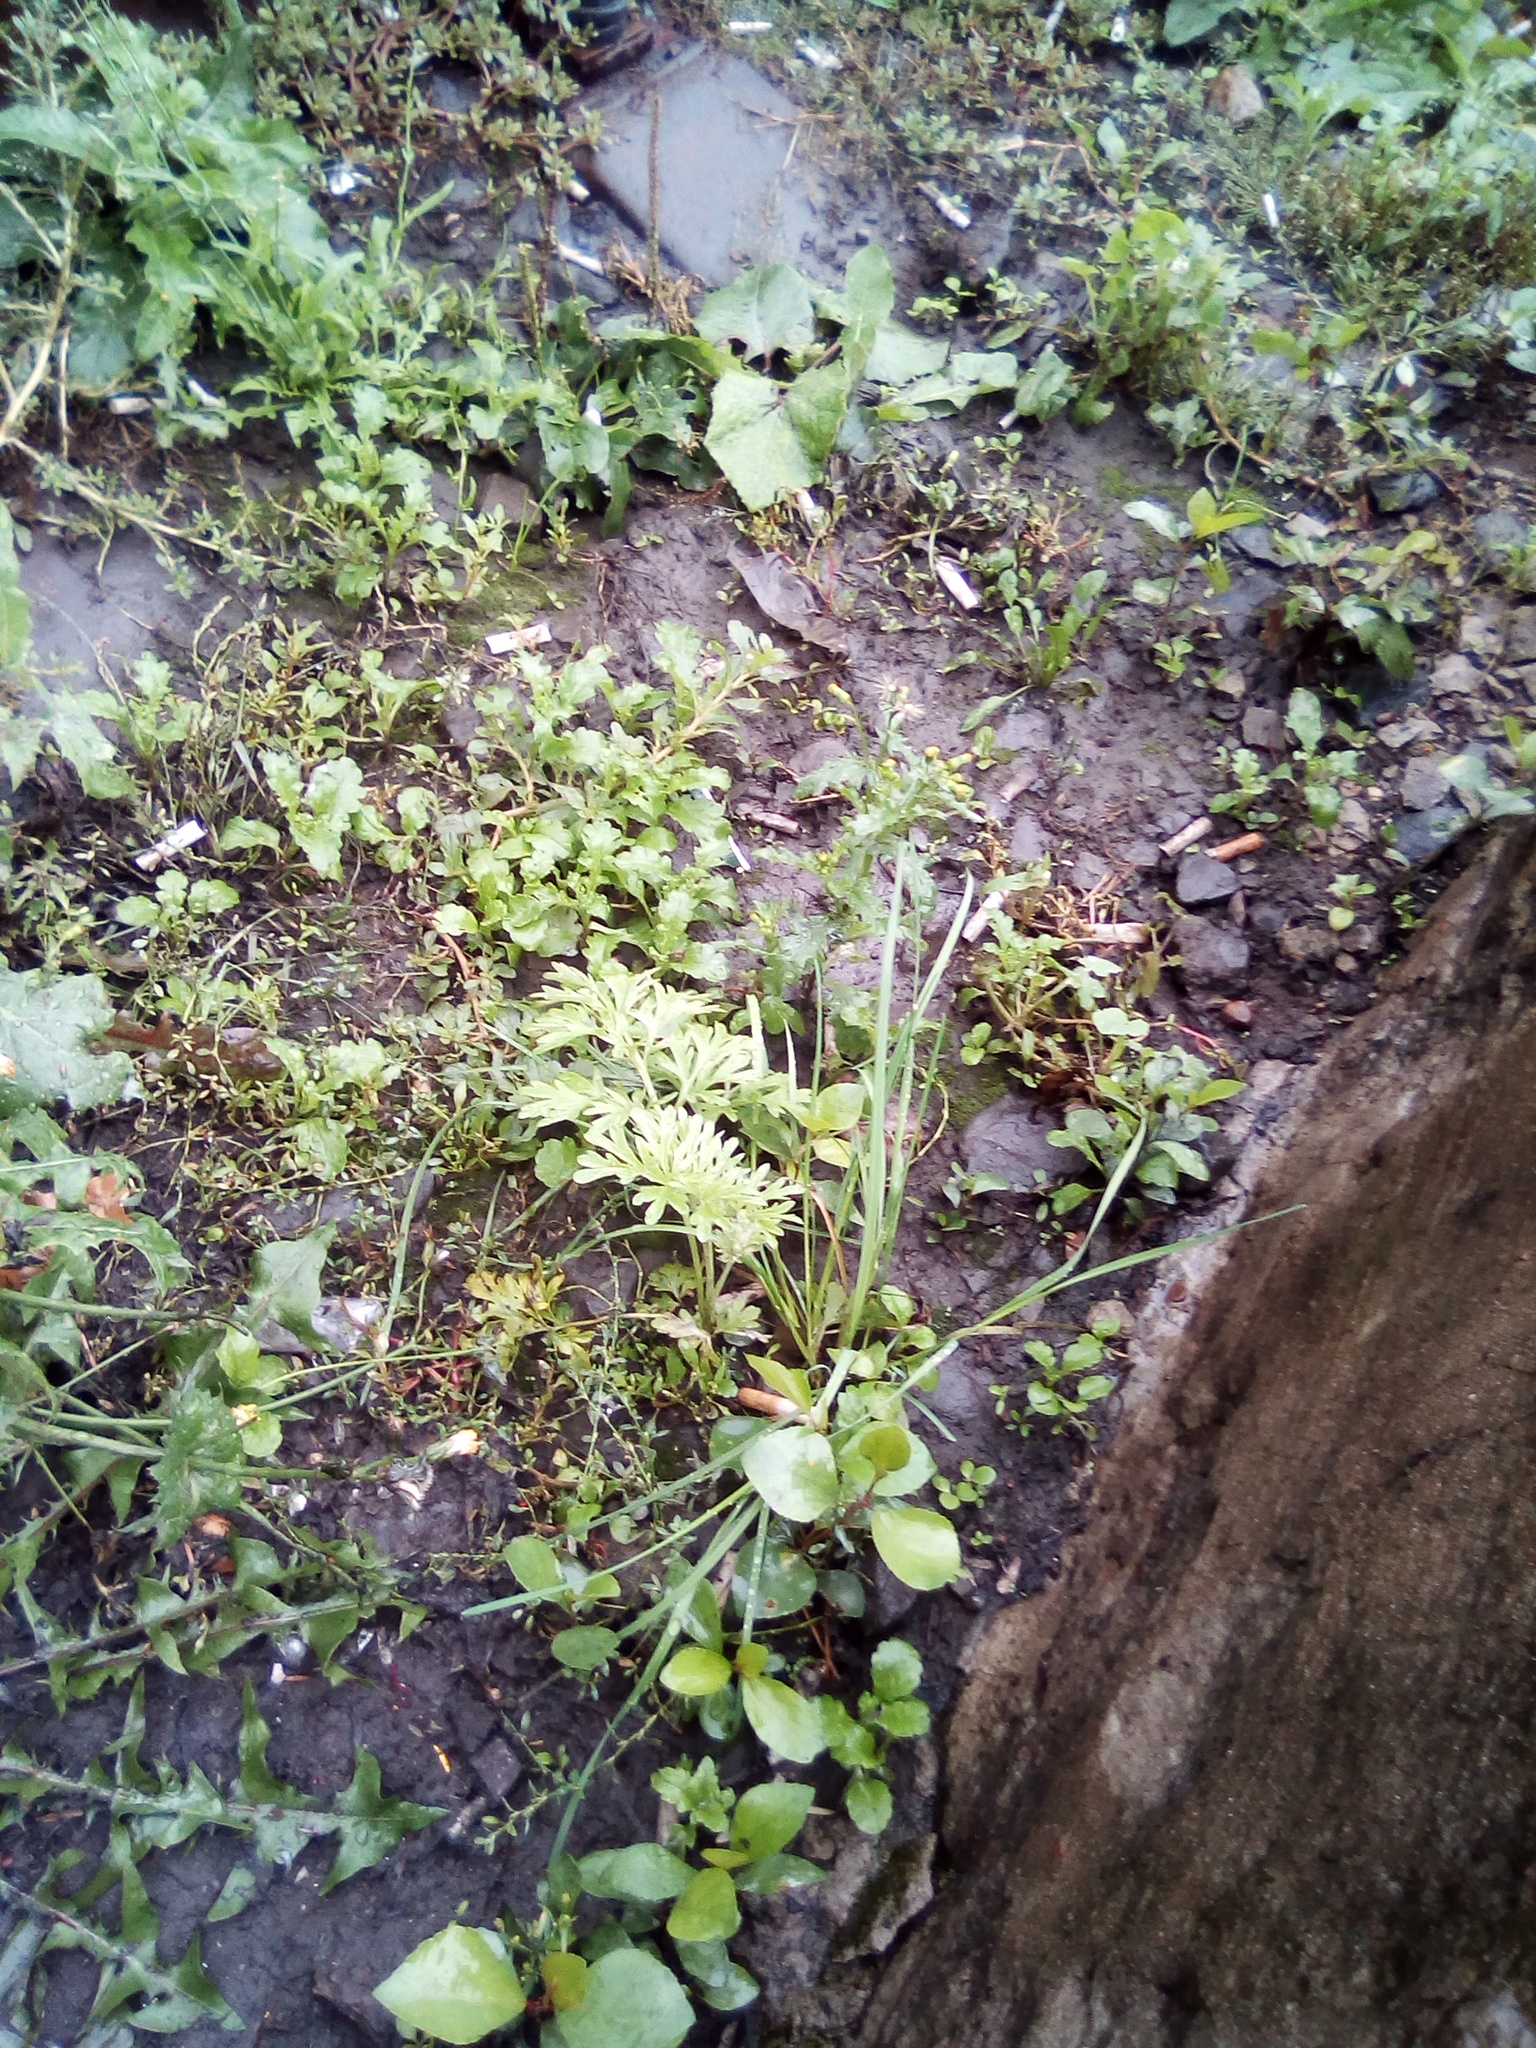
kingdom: Plantae
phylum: Tracheophyta
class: Magnoliopsida
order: Asterales
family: Asteraceae
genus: Senecio
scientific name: Senecio vulgaris
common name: Old-man-in-the-spring
